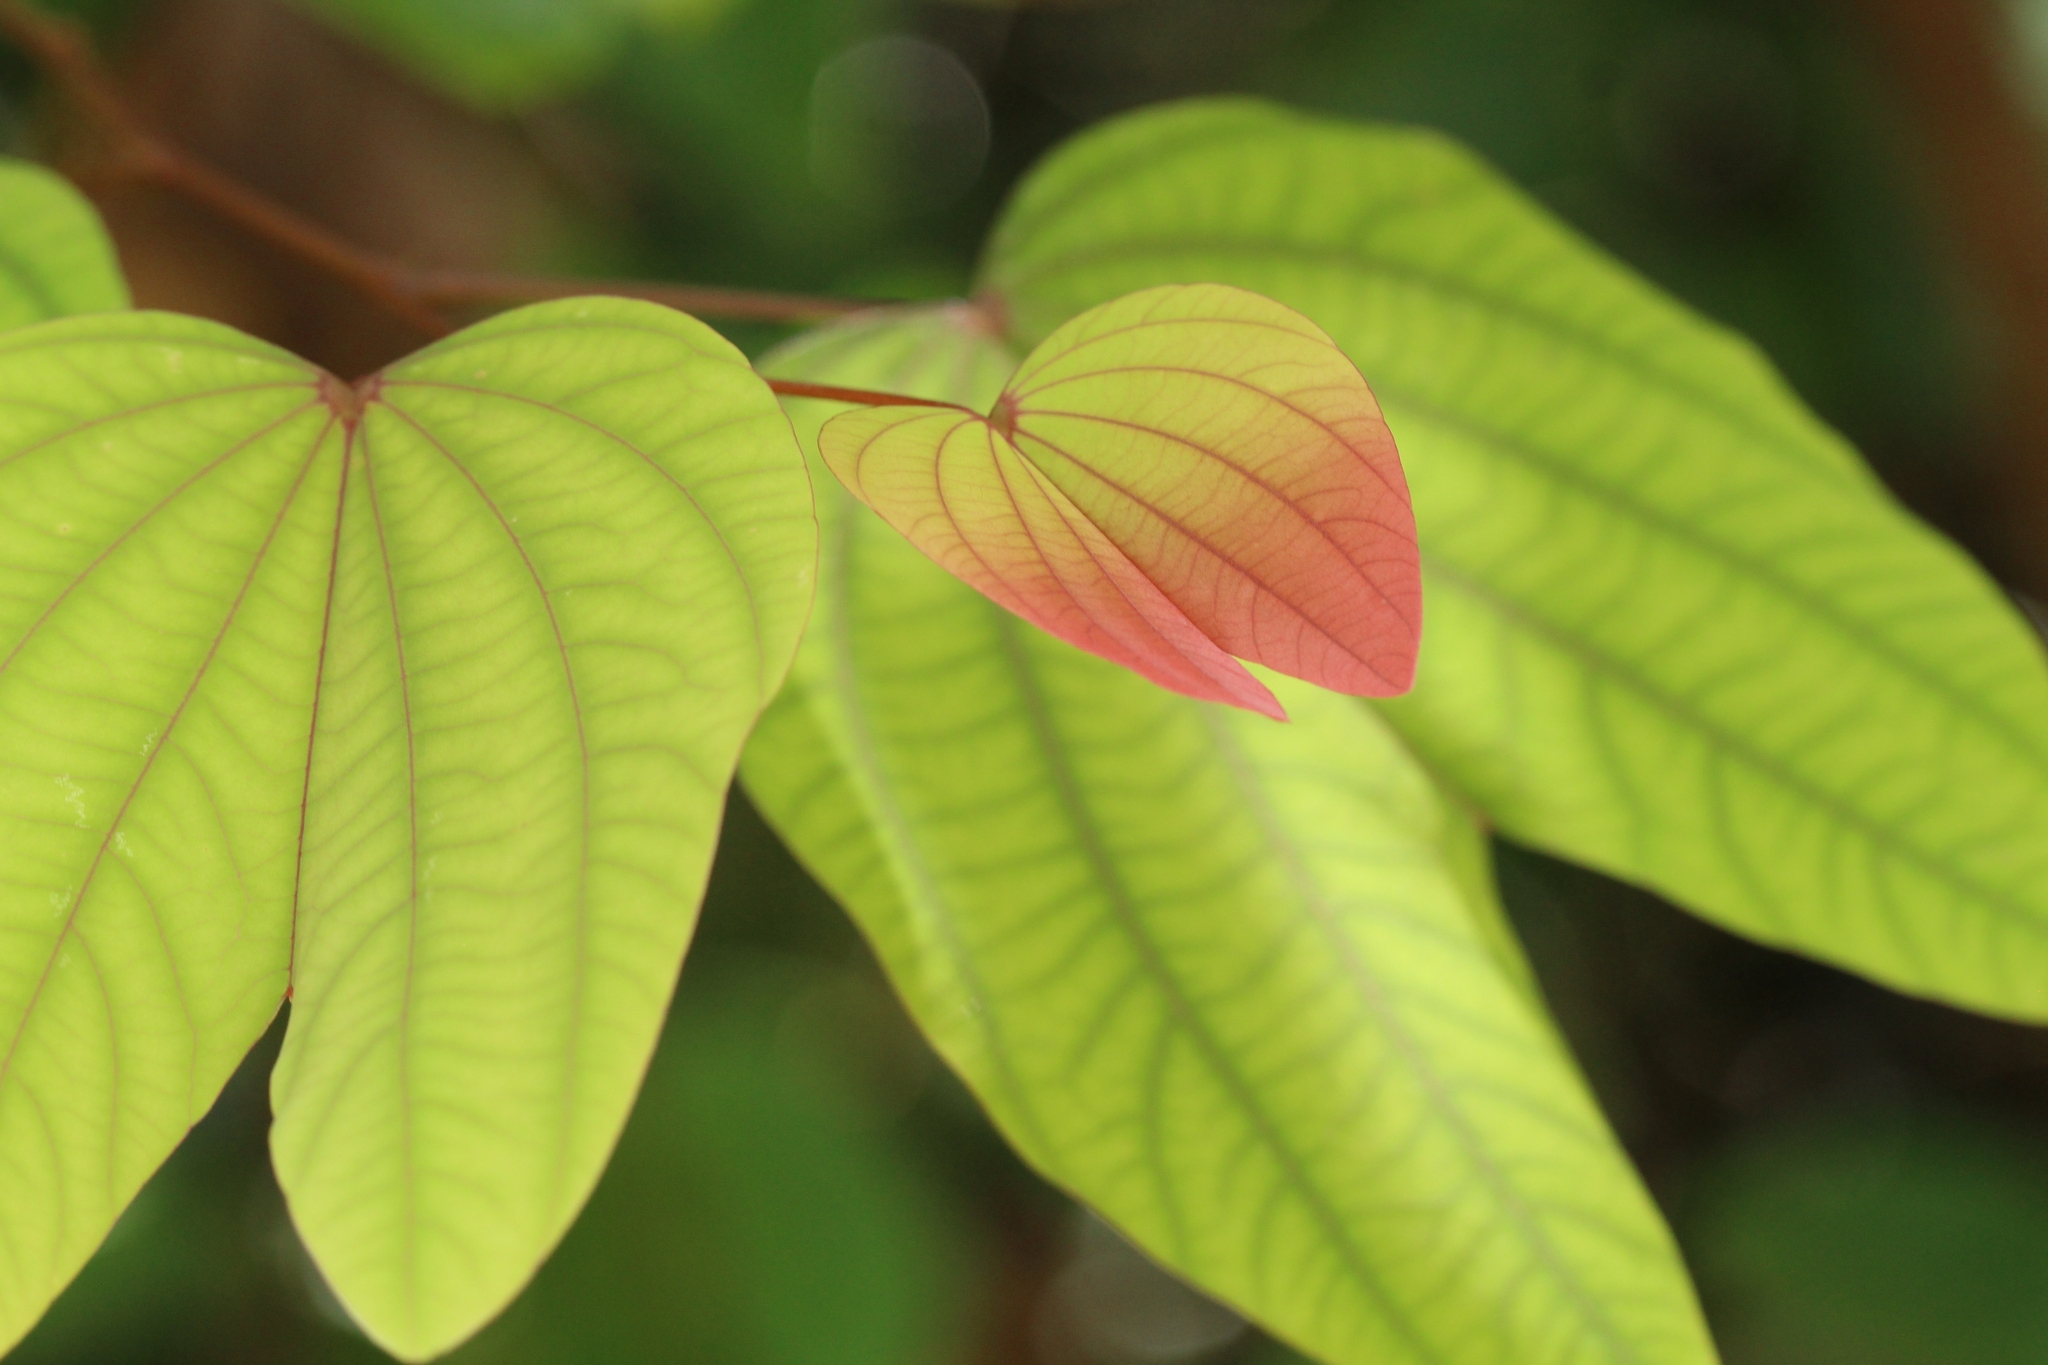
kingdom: Plantae
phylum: Tracheophyta
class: Magnoliopsida
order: Fabales
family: Fabaceae
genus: Bauhinia
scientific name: Bauhinia phoenicea
